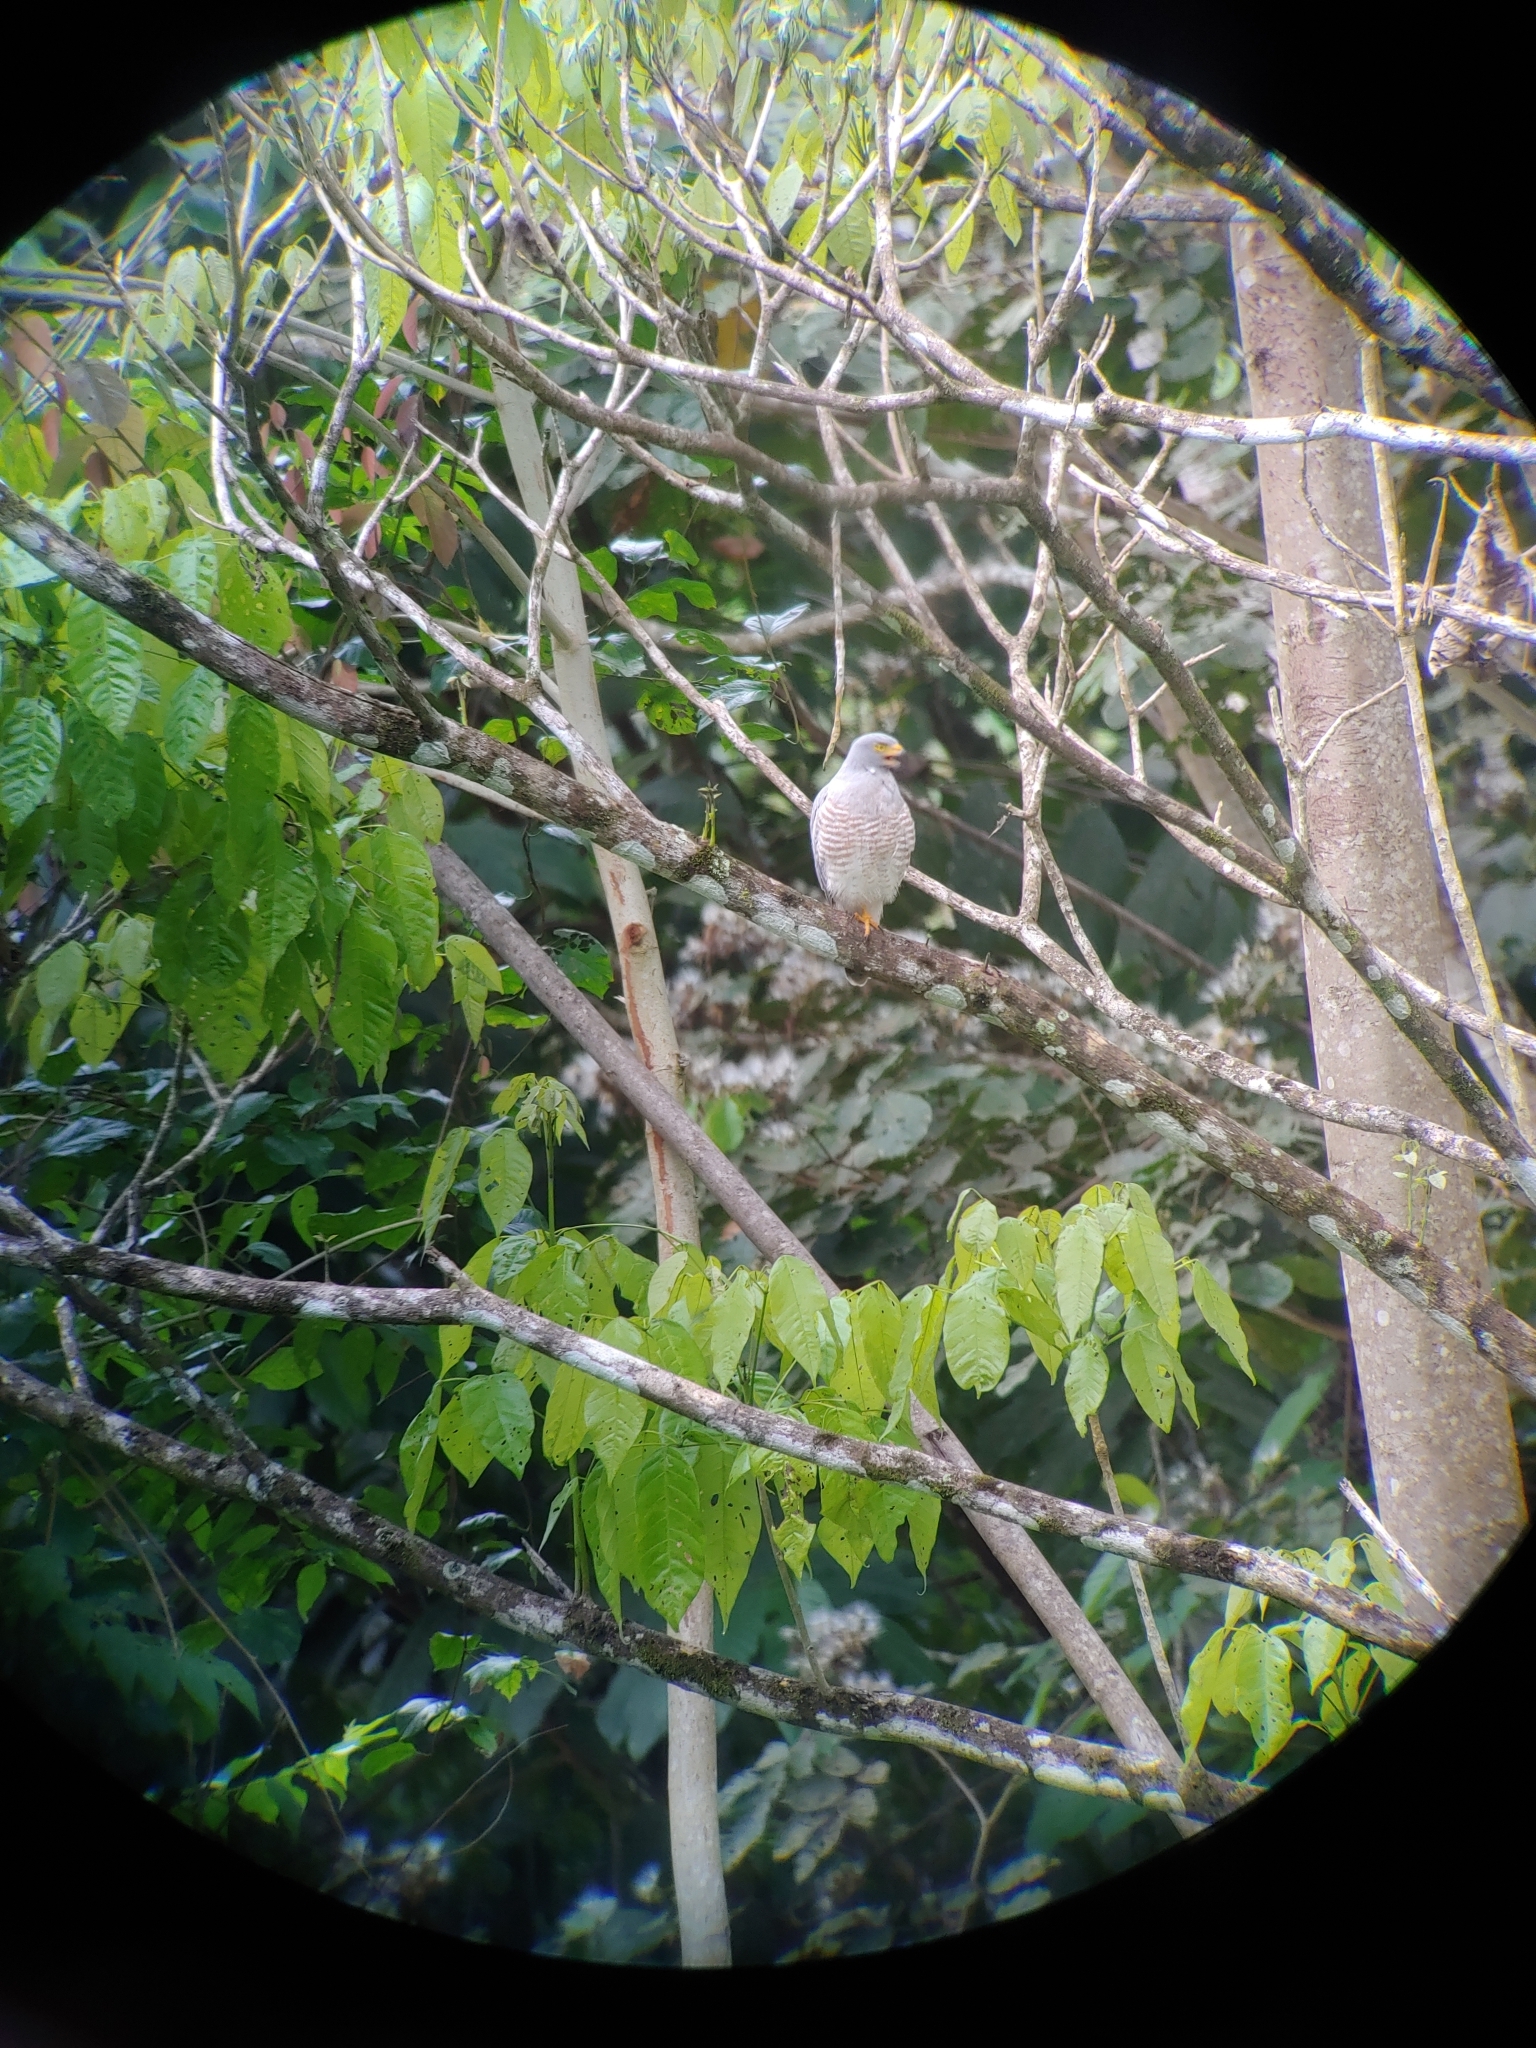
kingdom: Animalia
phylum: Chordata
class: Aves
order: Accipitriformes
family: Accipitridae
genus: Rupornis
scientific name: Rupornis magnirostris
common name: Roadside hawk
